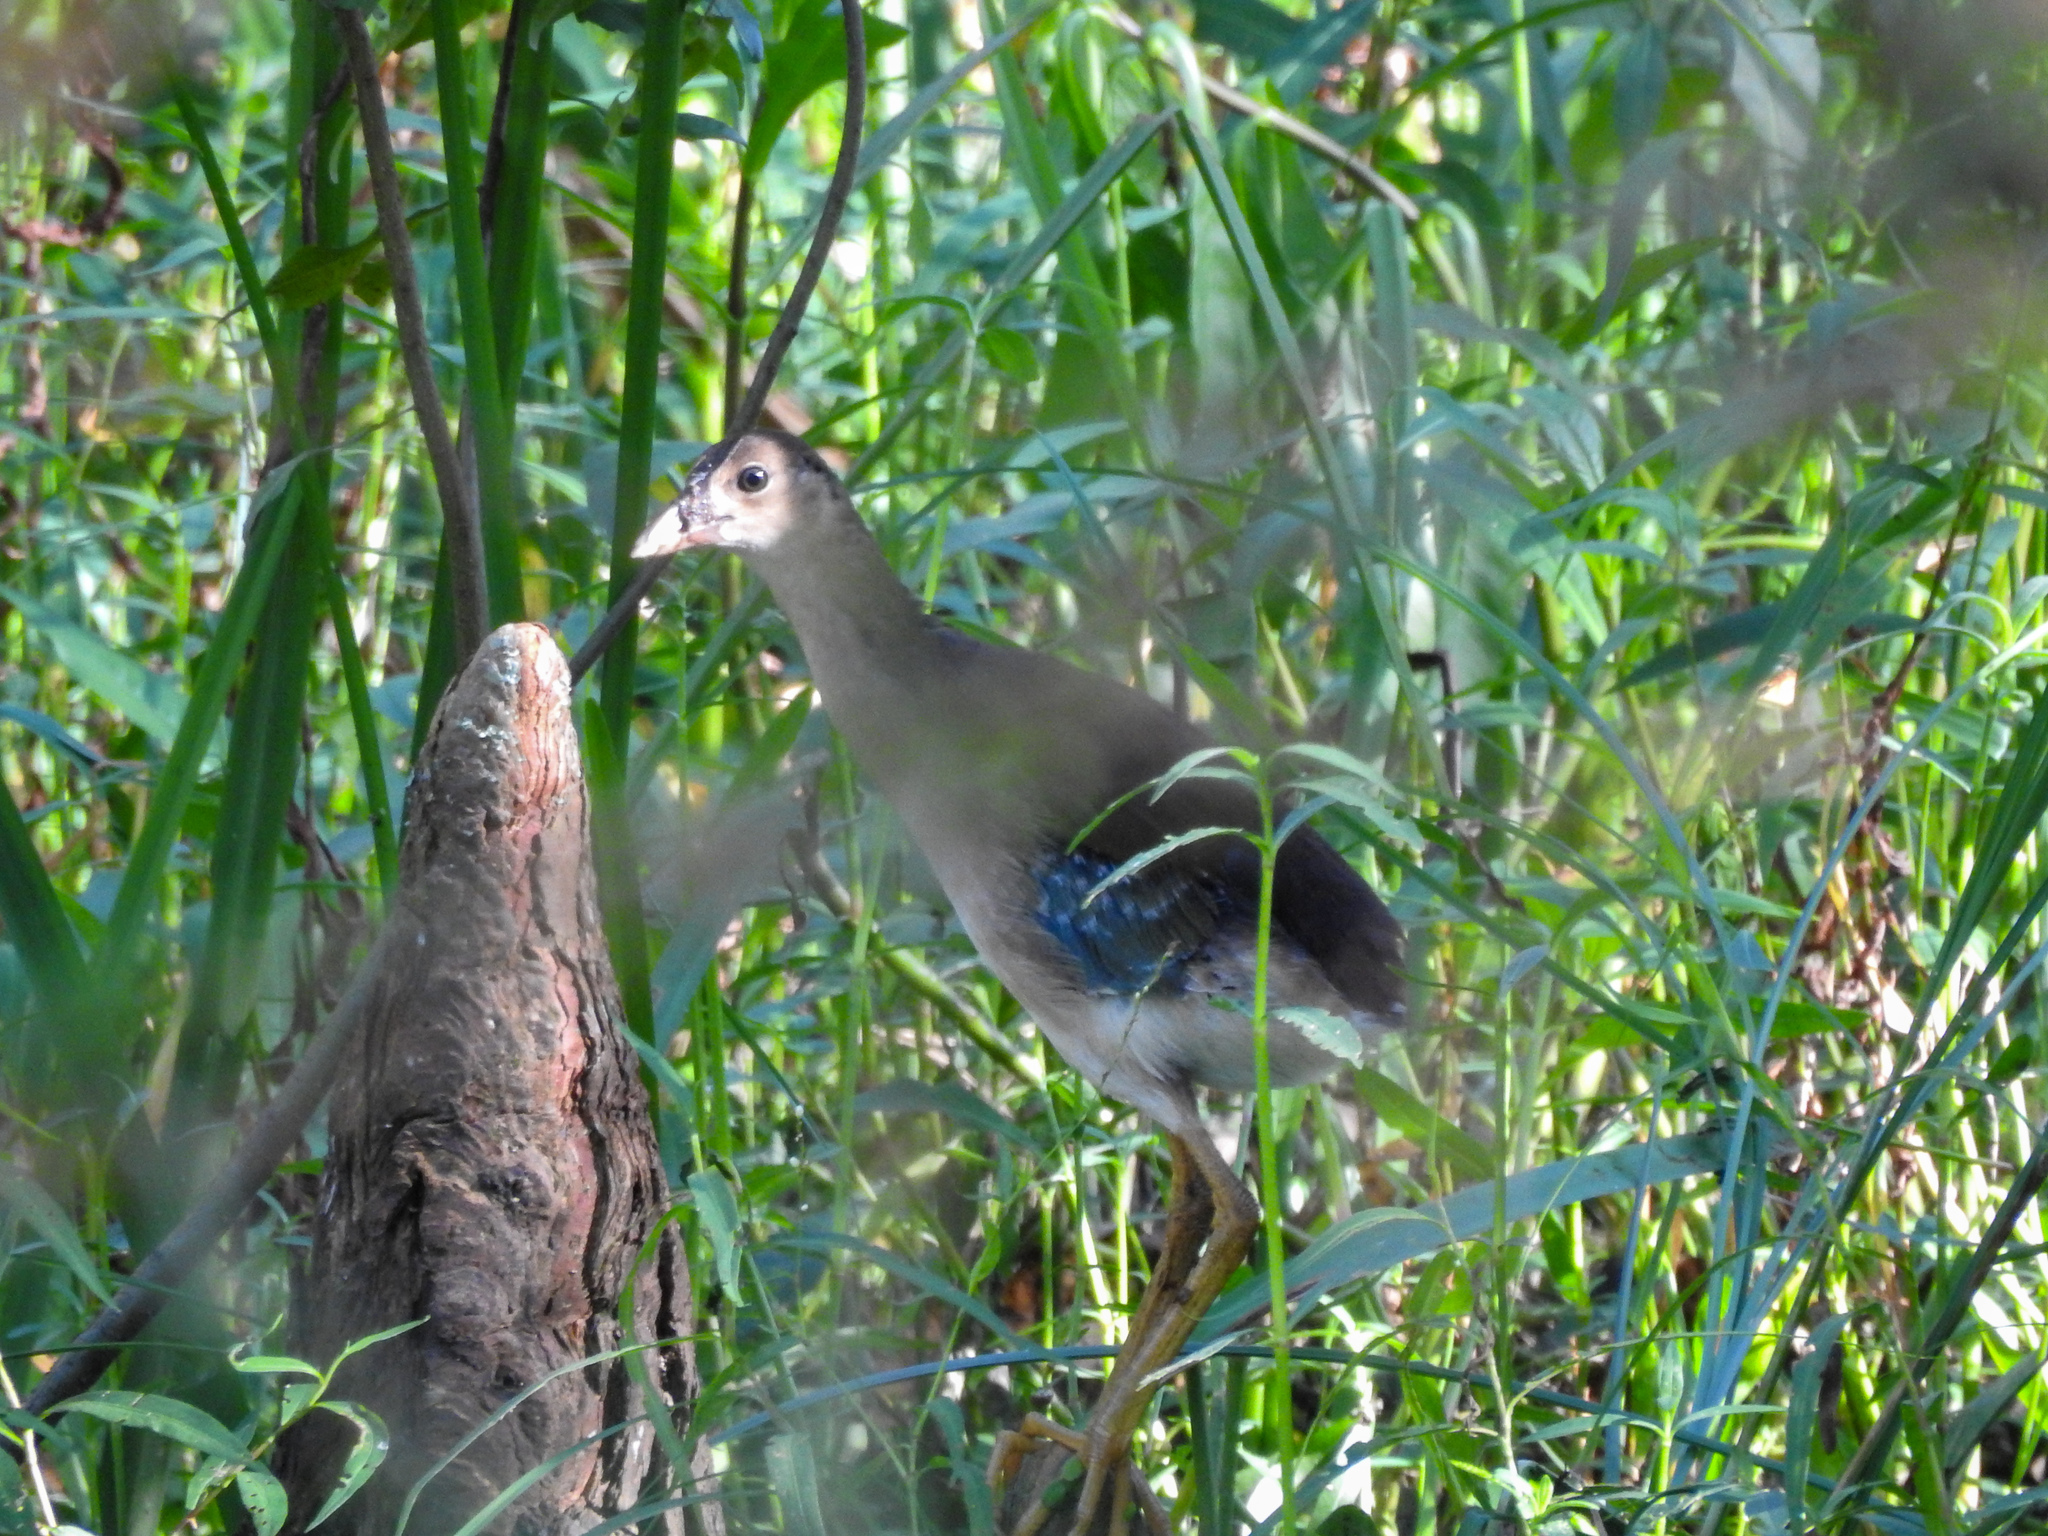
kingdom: Animalia
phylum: Chordata
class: Aves
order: Gruiformes
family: Rallidae
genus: Porphyrio
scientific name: Porphyrio martinica
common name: Purple gallinule
